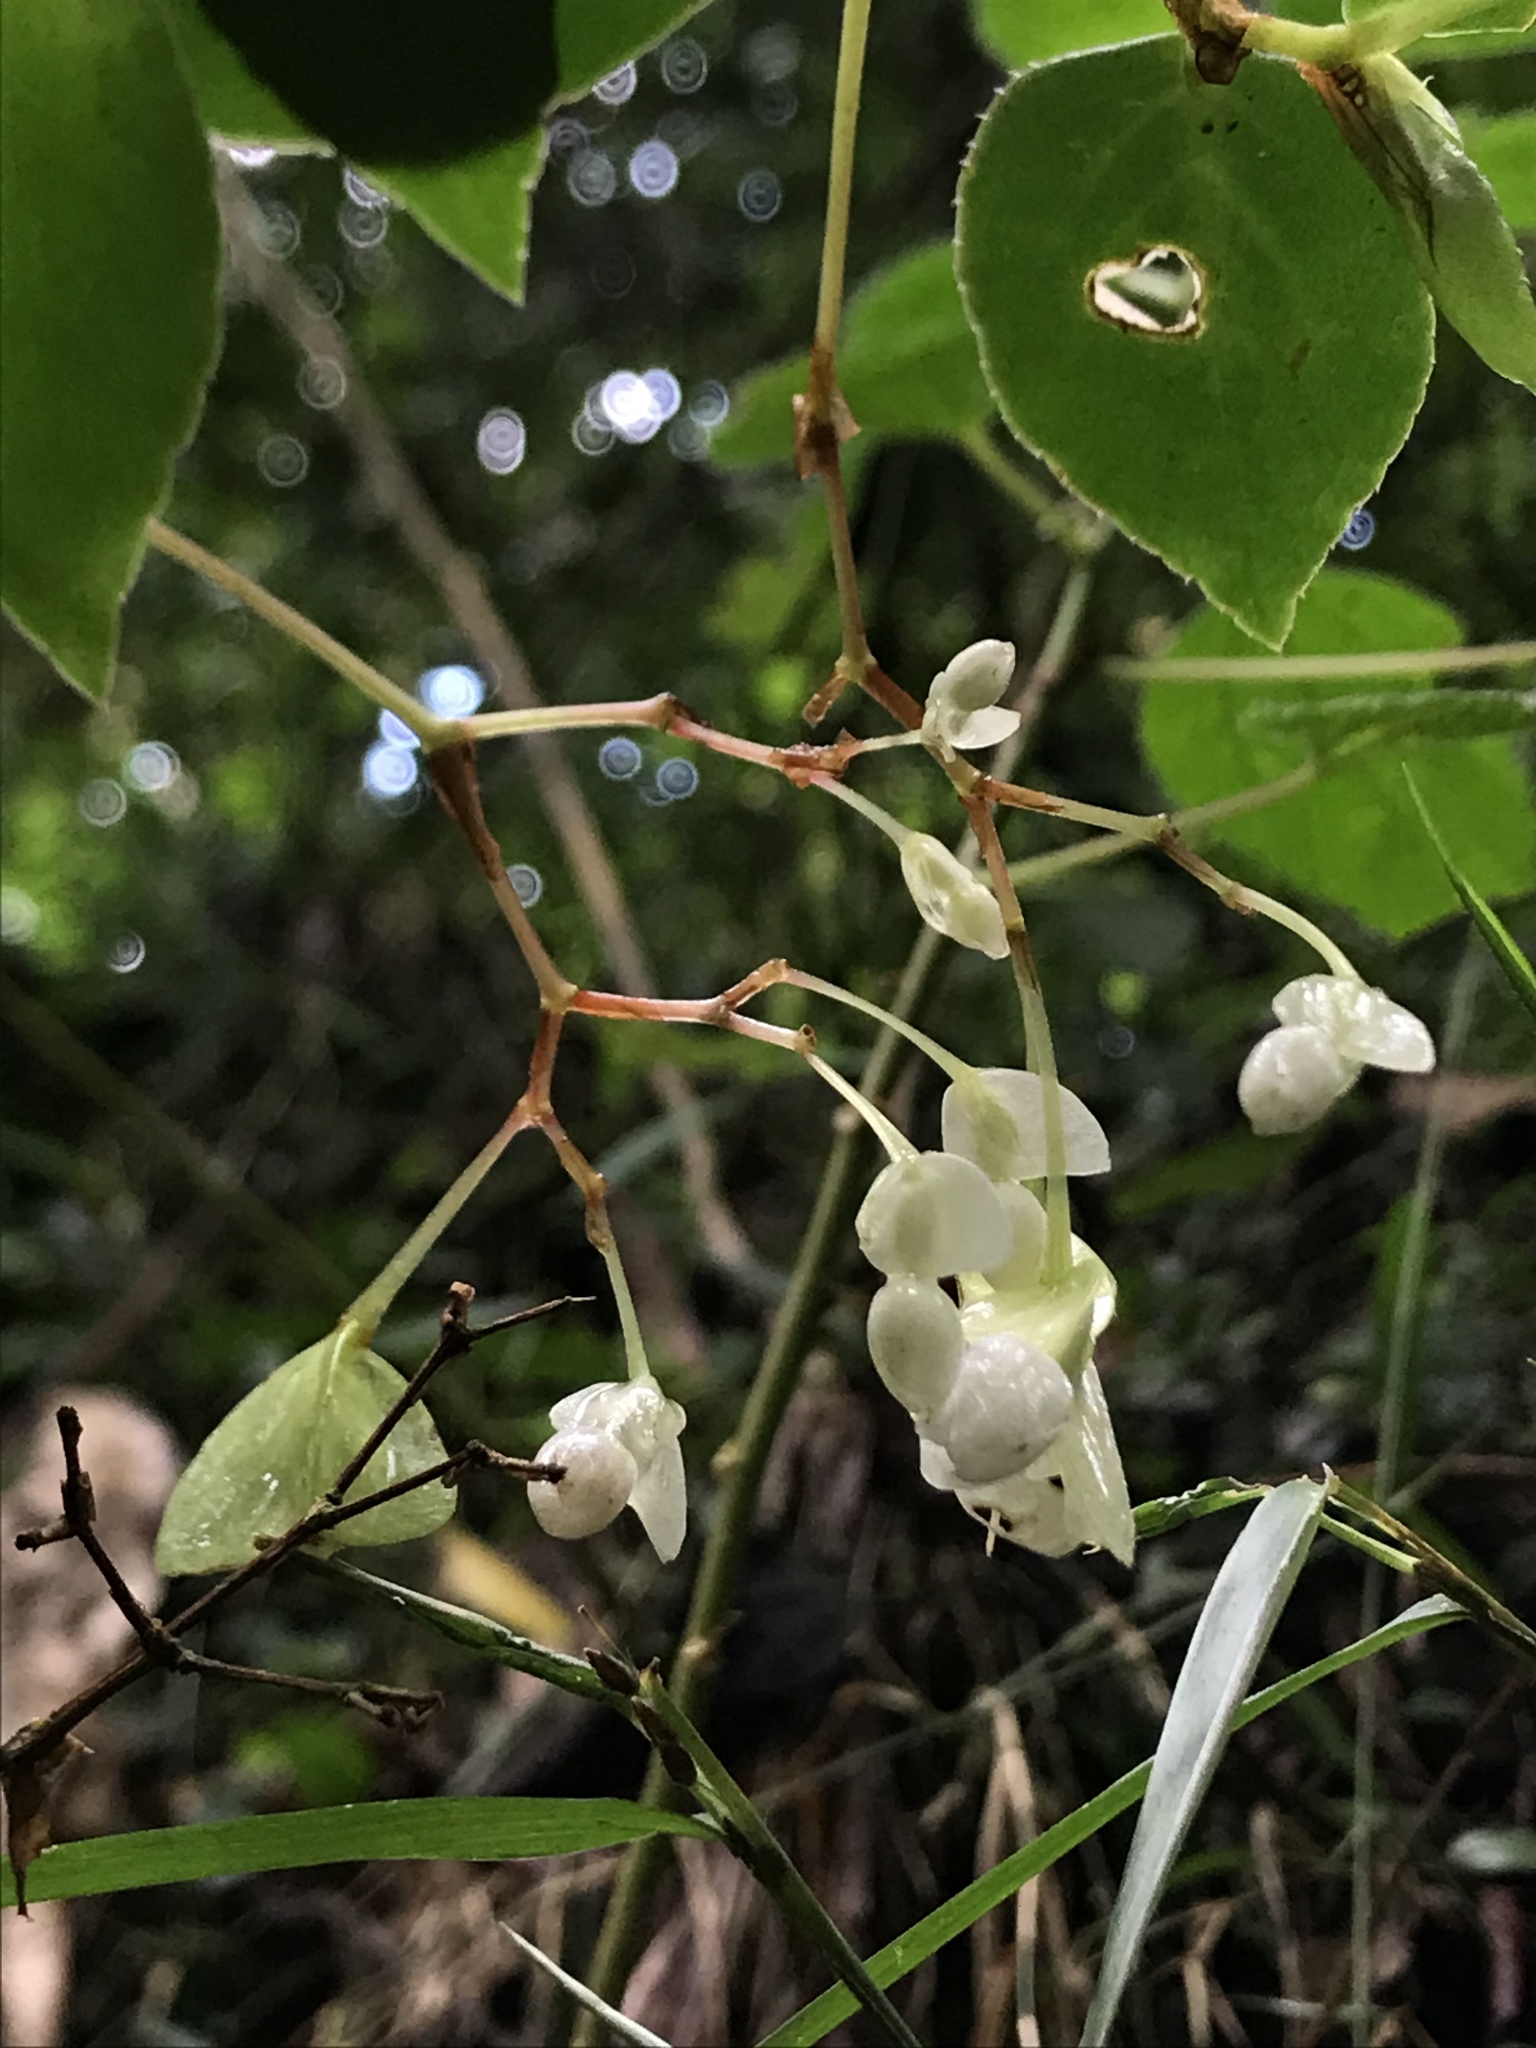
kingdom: Plantae
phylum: Tracheophyta
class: Magnoliopsida
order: Cucurbitales
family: Begoniaceae
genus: Begonia
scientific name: Begonia holtonis
